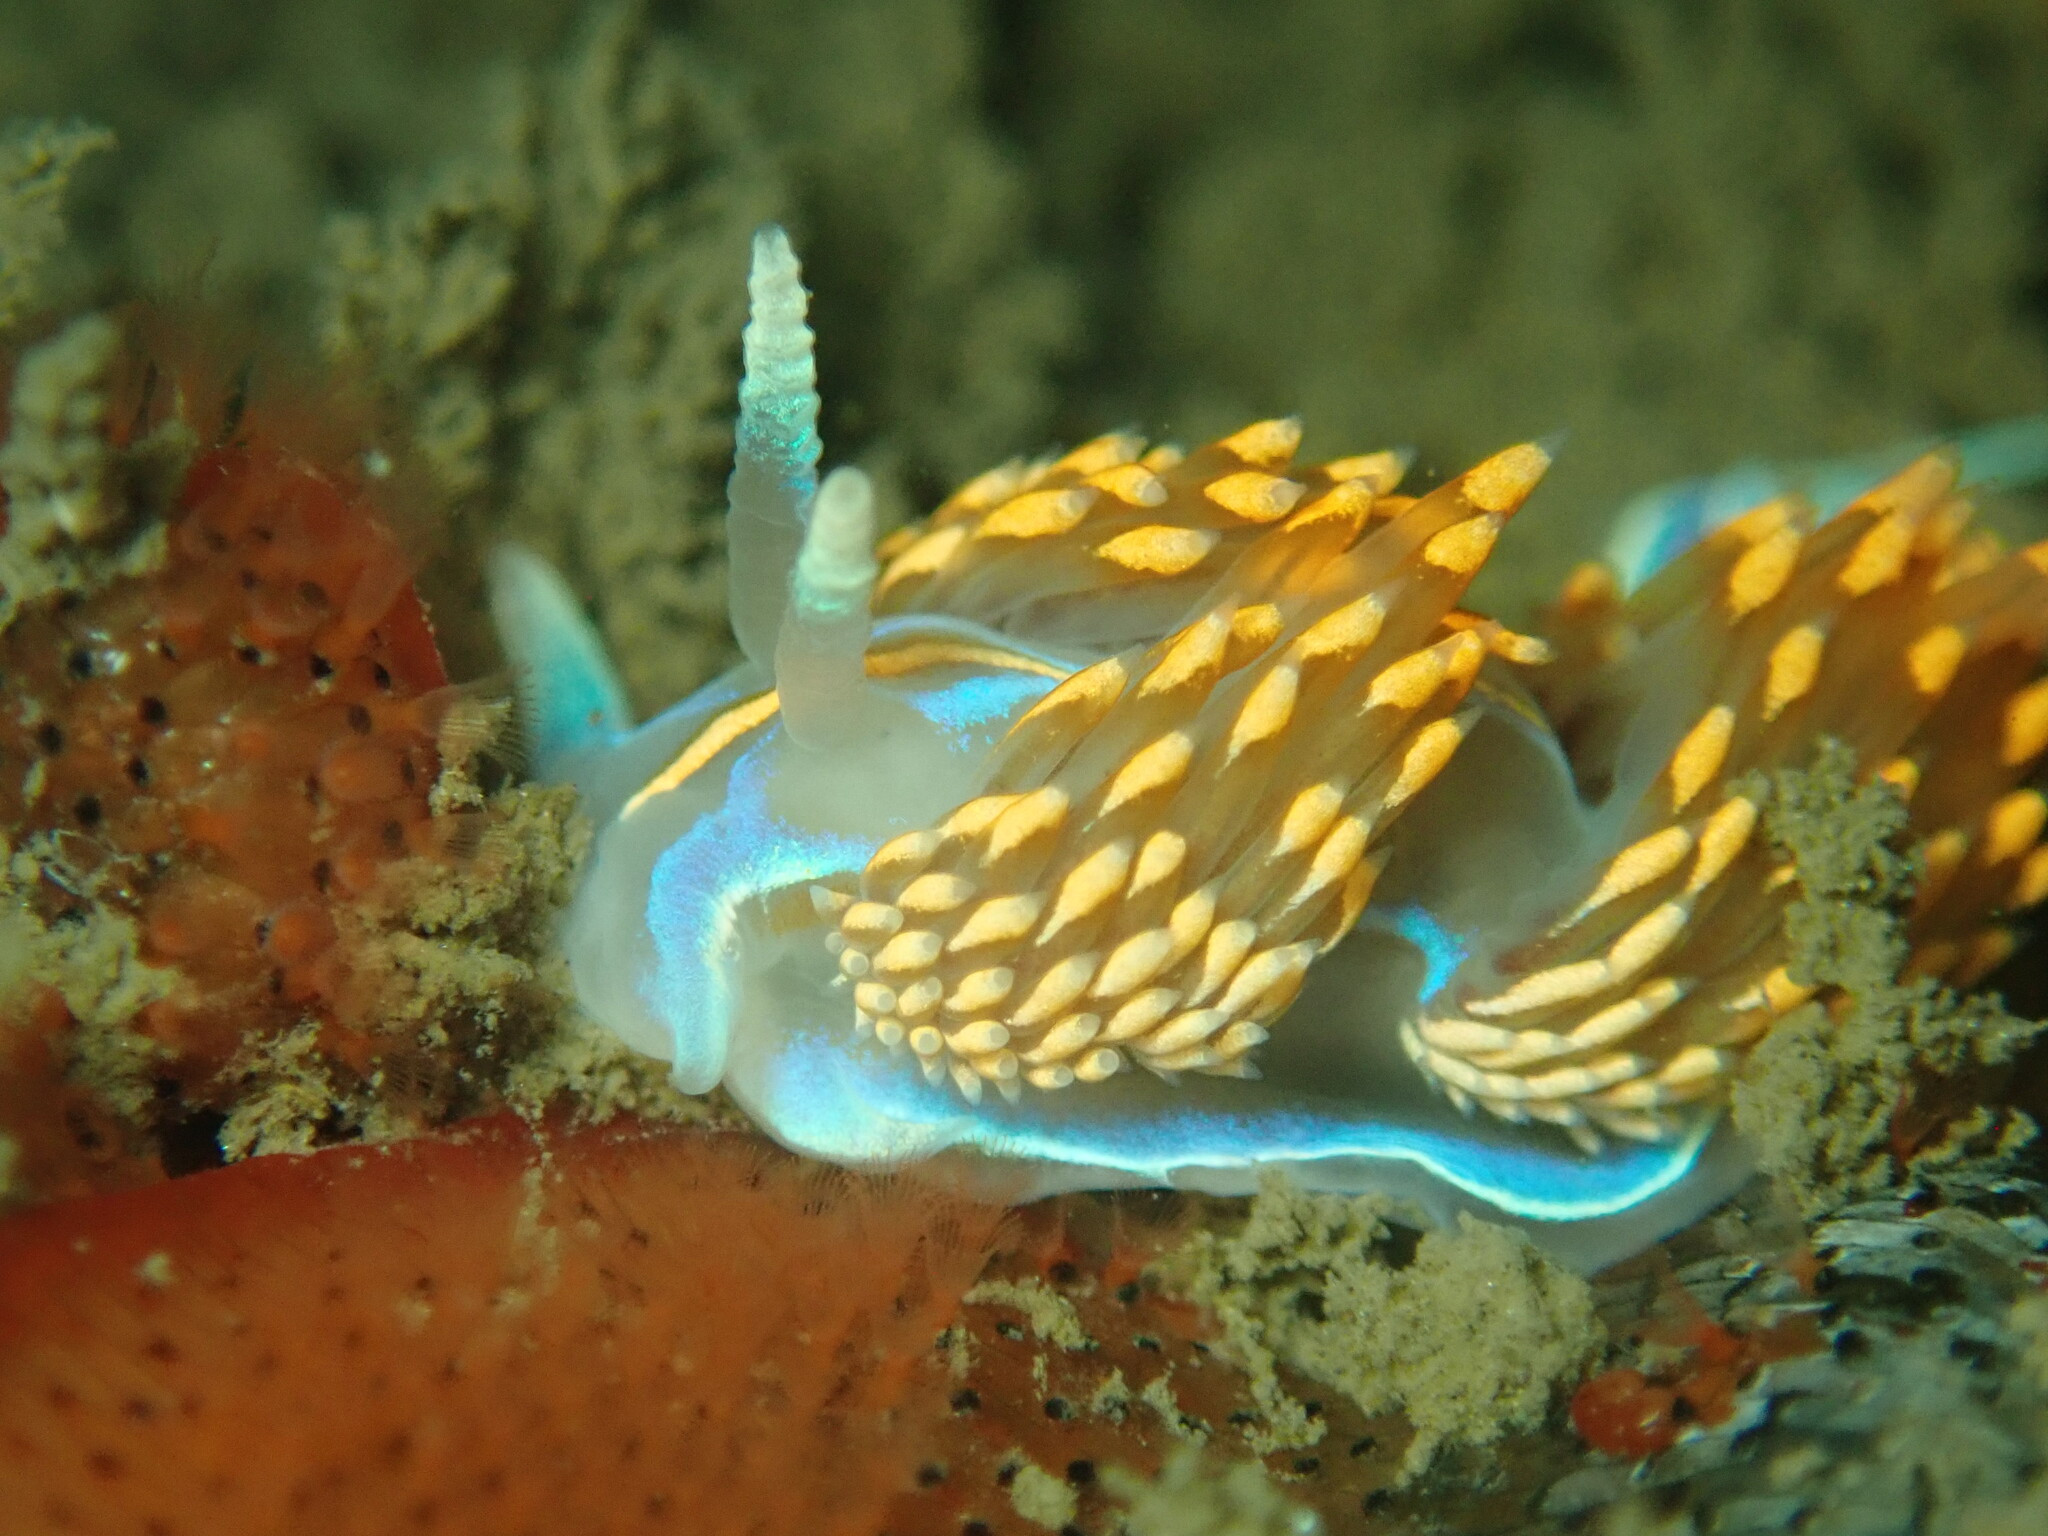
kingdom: Animalia
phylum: Mollusca
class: Gastropoda
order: Nudibranchia
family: Myrrhinidae
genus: Hermissenda
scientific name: Hermissenda opalescens
